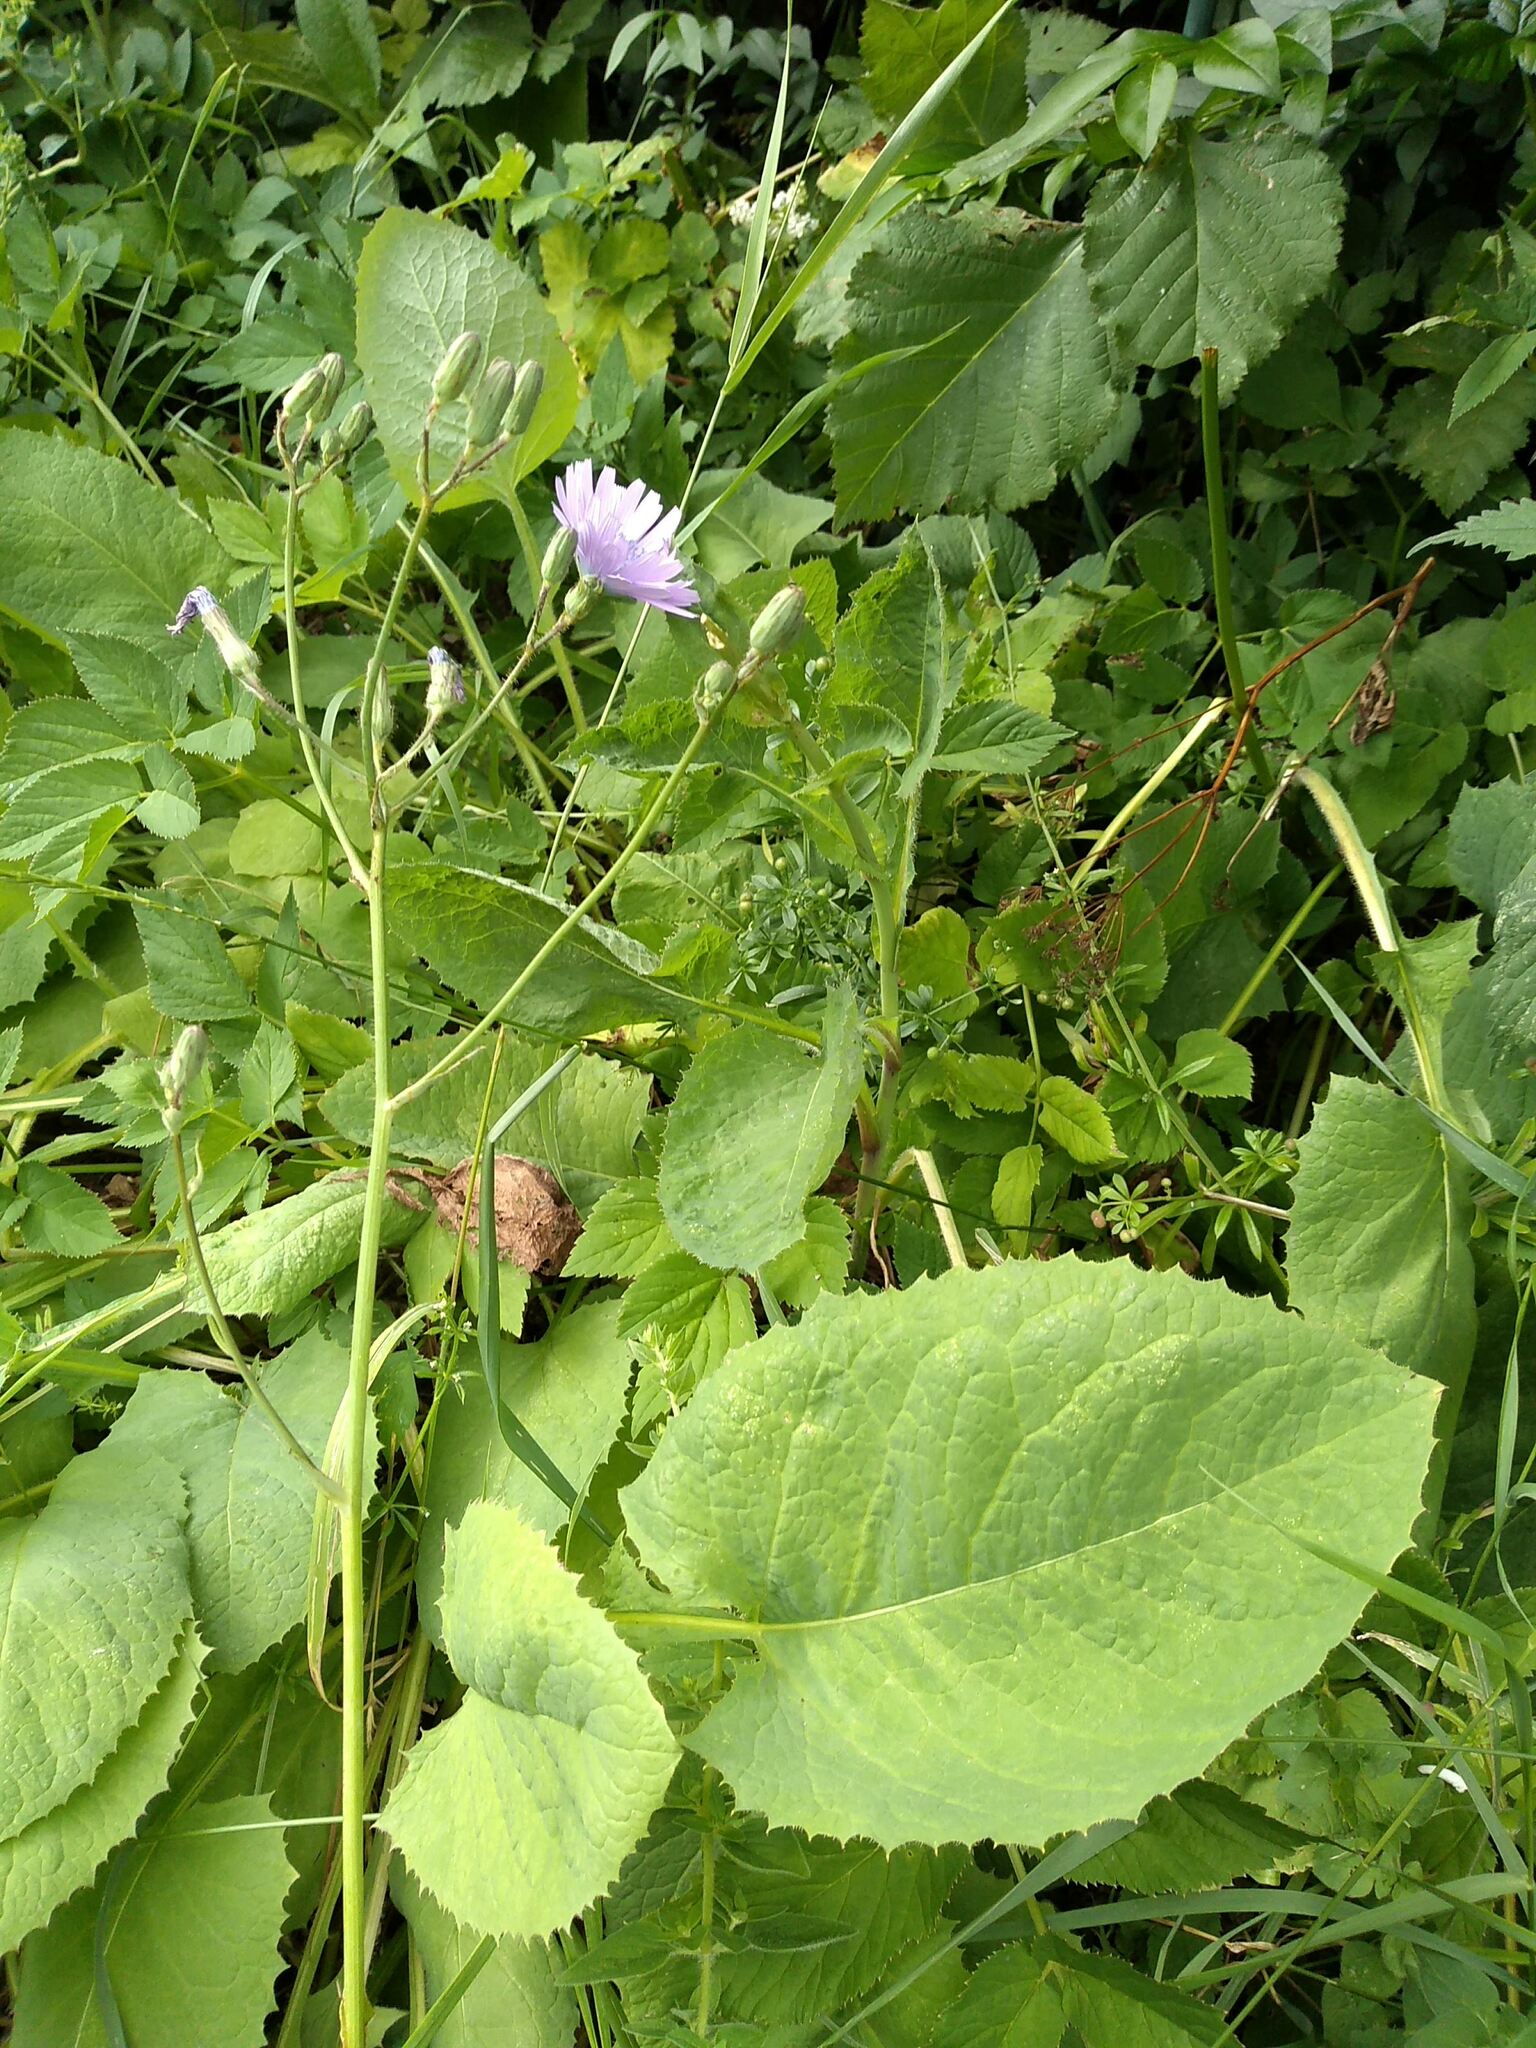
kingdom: Plantae
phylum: Tracheophyta
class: Magnoliopsida
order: Asterales
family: Asteraceae
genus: Lactuca
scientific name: Lactuca macrophylla
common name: Common blue-sow-thistle
